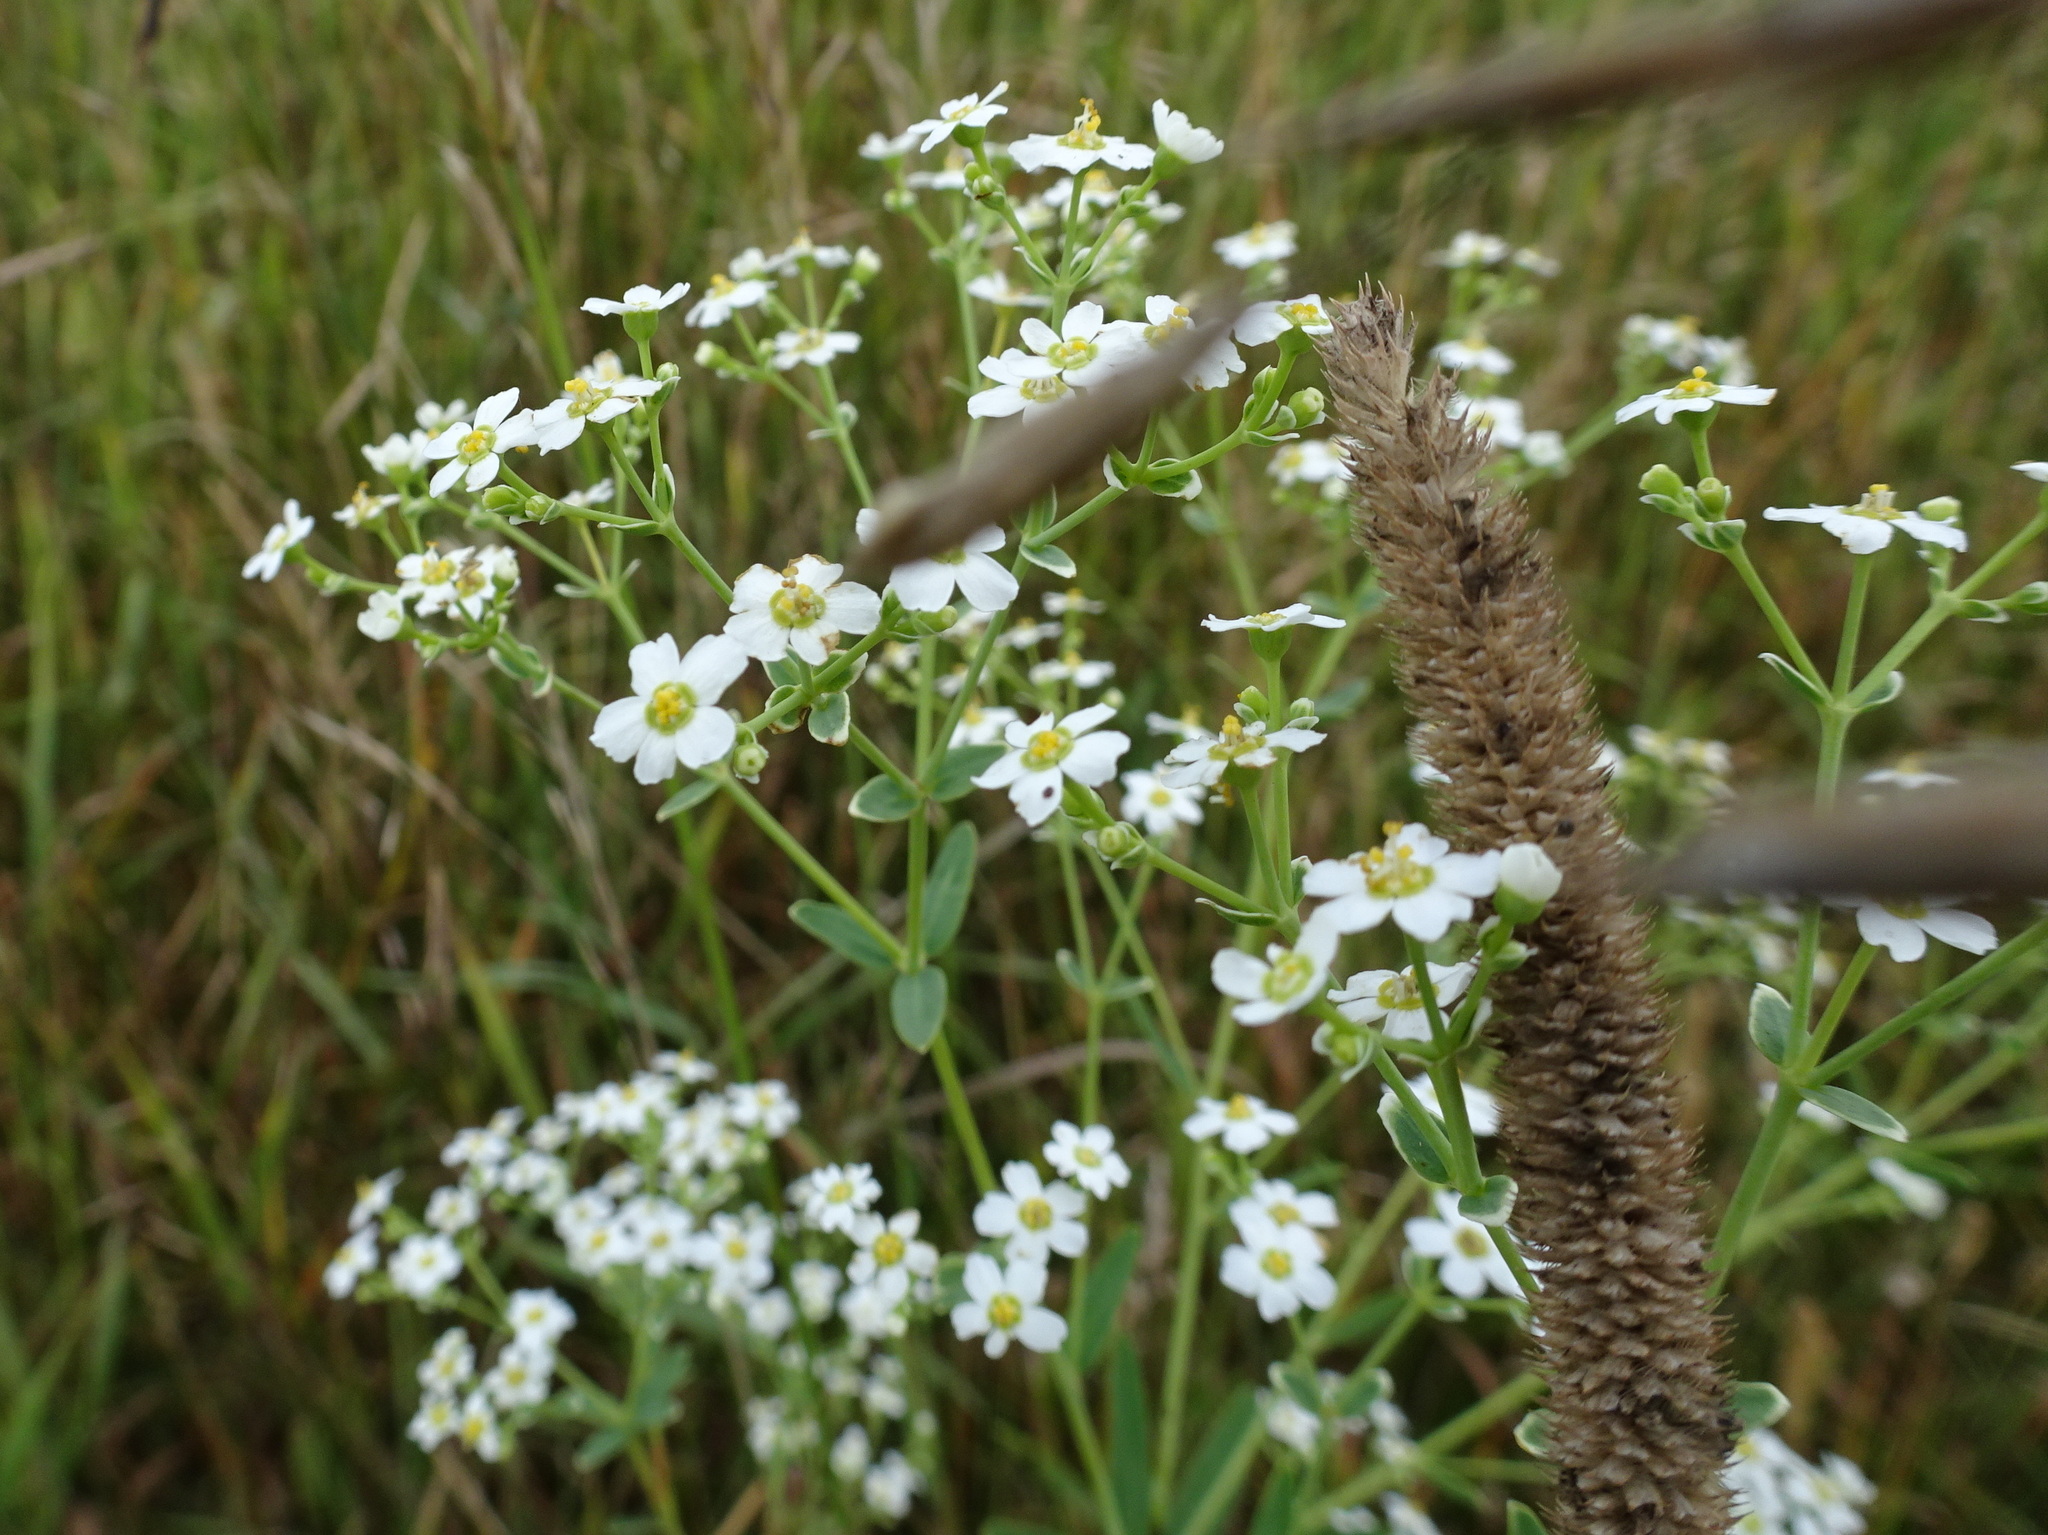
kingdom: Plantae
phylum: Tracheophyta
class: Magnoliopsida
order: Malpighiales
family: Euphorbiaceae
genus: Euphorbia
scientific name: Euphorbia corollata
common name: Flowering spurge
